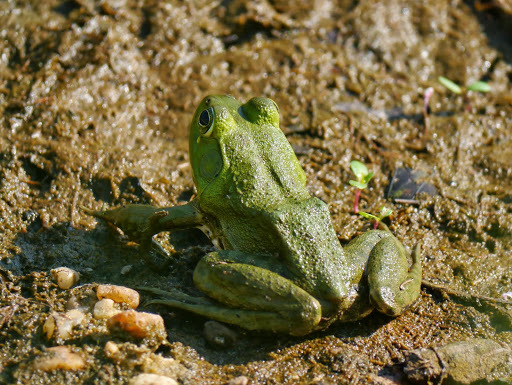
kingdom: Animalia
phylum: Chordata
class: Amphibia
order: Anura
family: Ranidae
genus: Lithobates
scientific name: Lithobates catesbeianus
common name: American bullfrog
